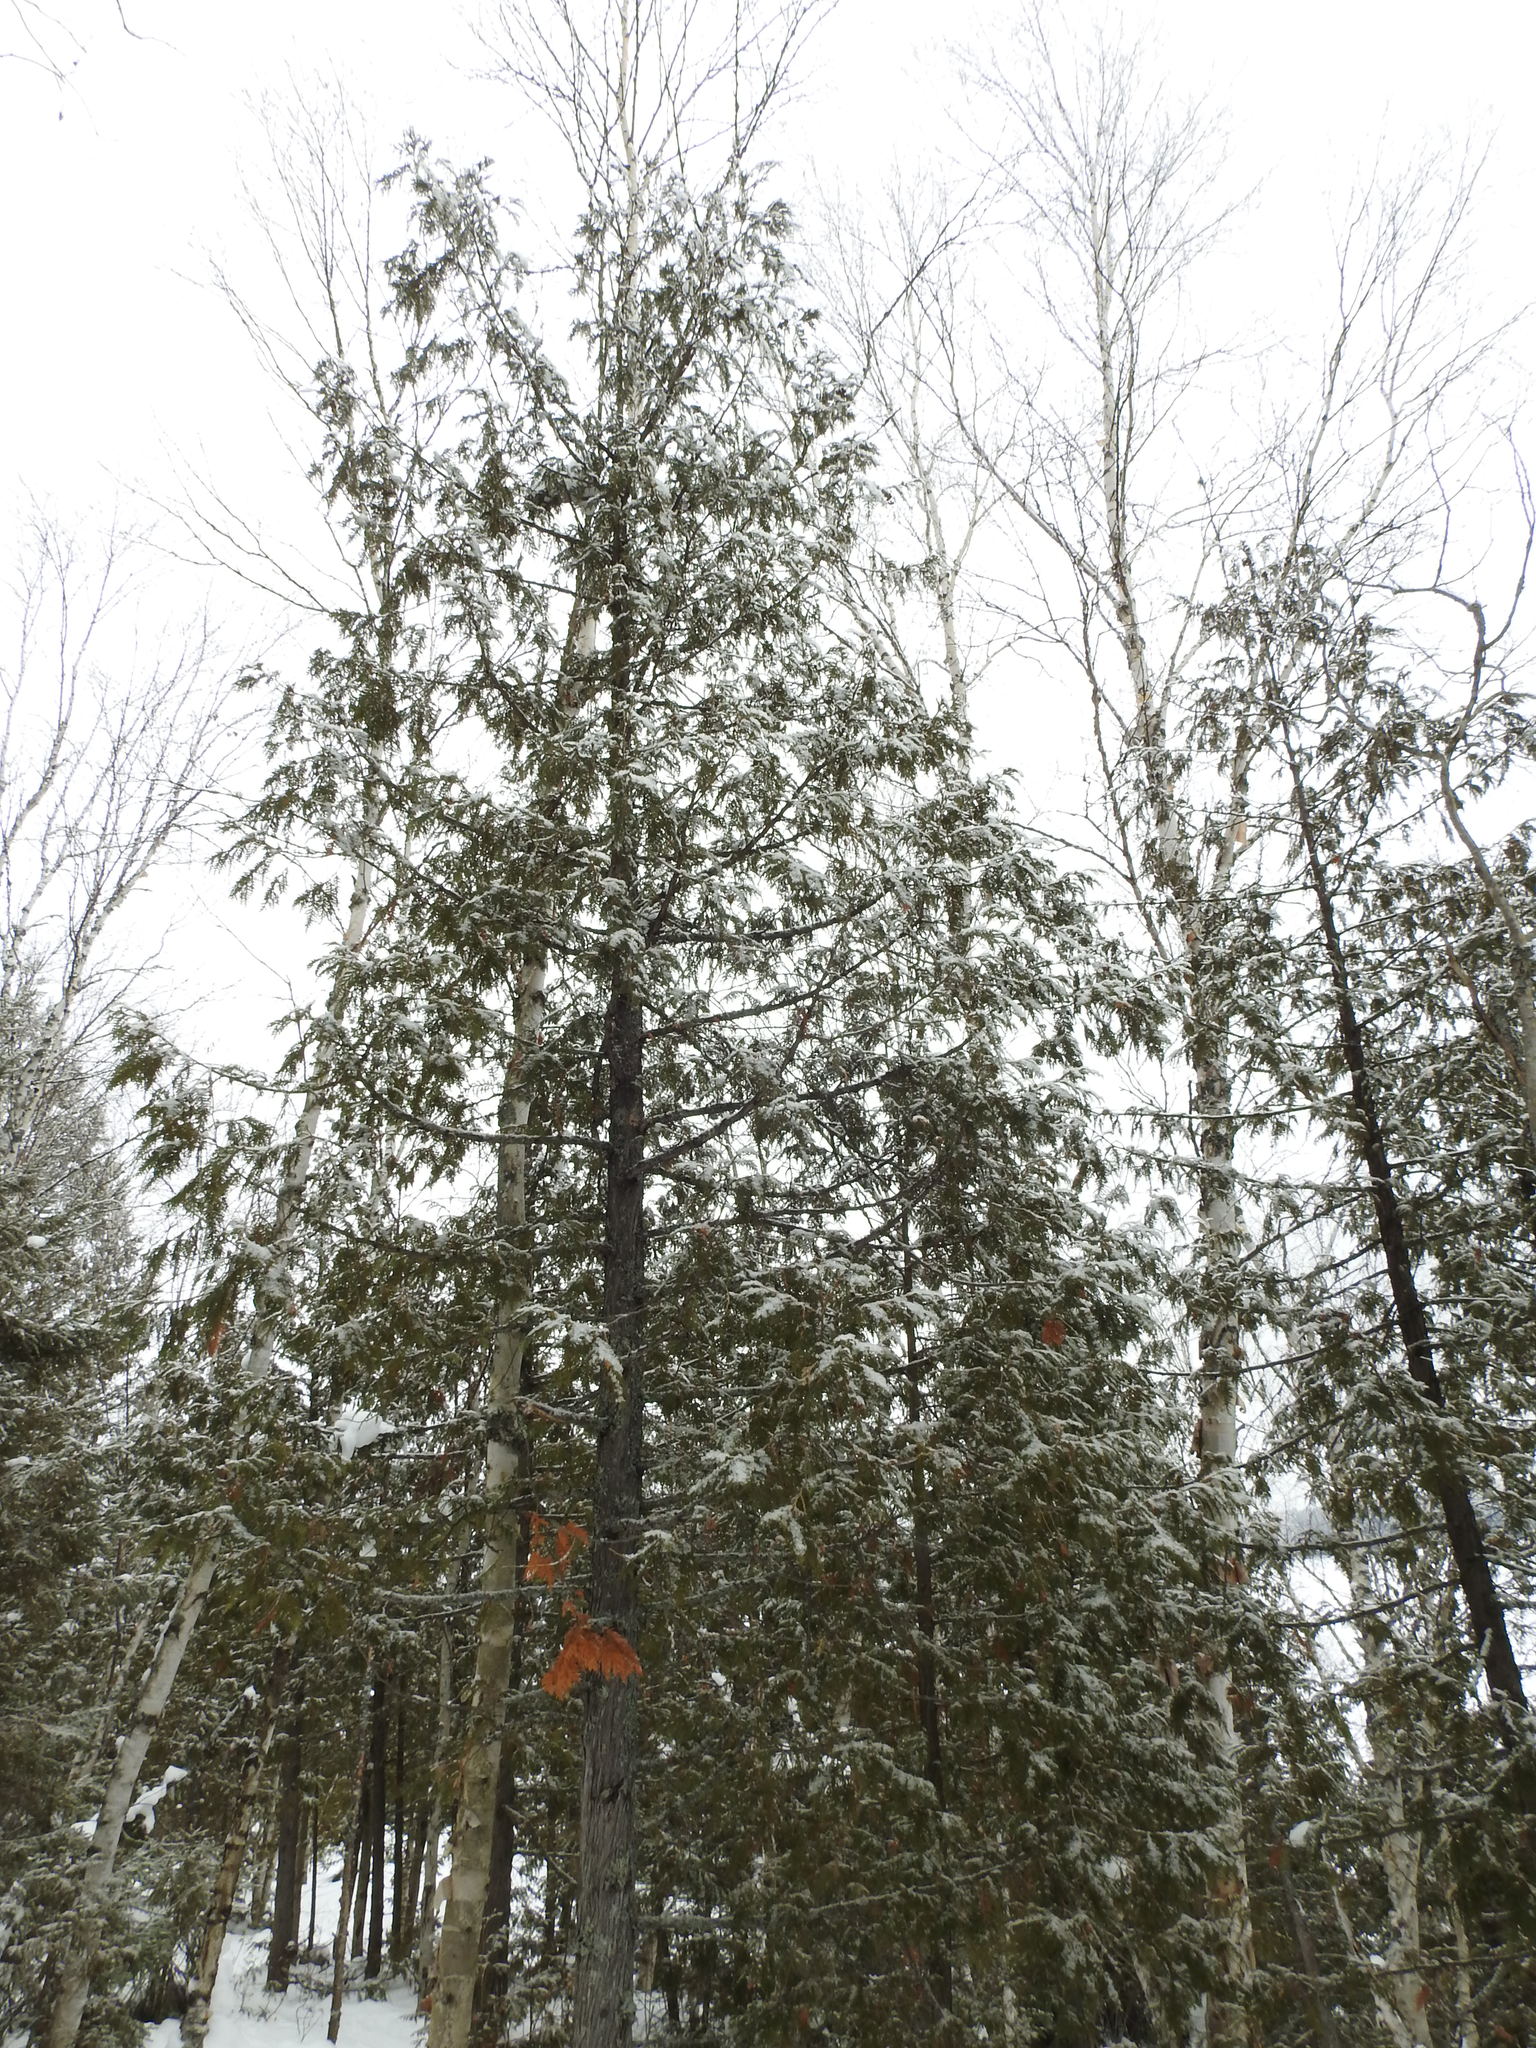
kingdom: Plantae
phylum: Tracheophyta
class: Pinopsida
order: Pinales
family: Cupressaceae
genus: Thuja
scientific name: Thuja occidentalis
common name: Northern white-cedar
